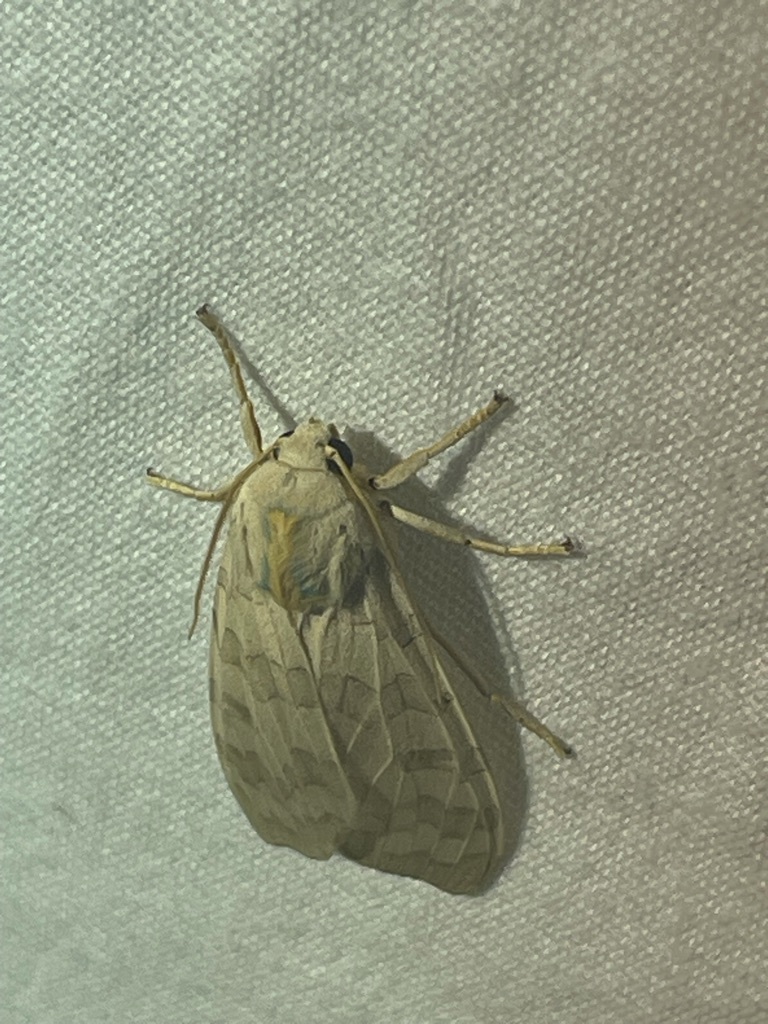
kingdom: Animalia
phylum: Arthropoda
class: Insecta
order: Lepidoptera
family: Erebidae
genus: Halysidota
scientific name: Halysidota
